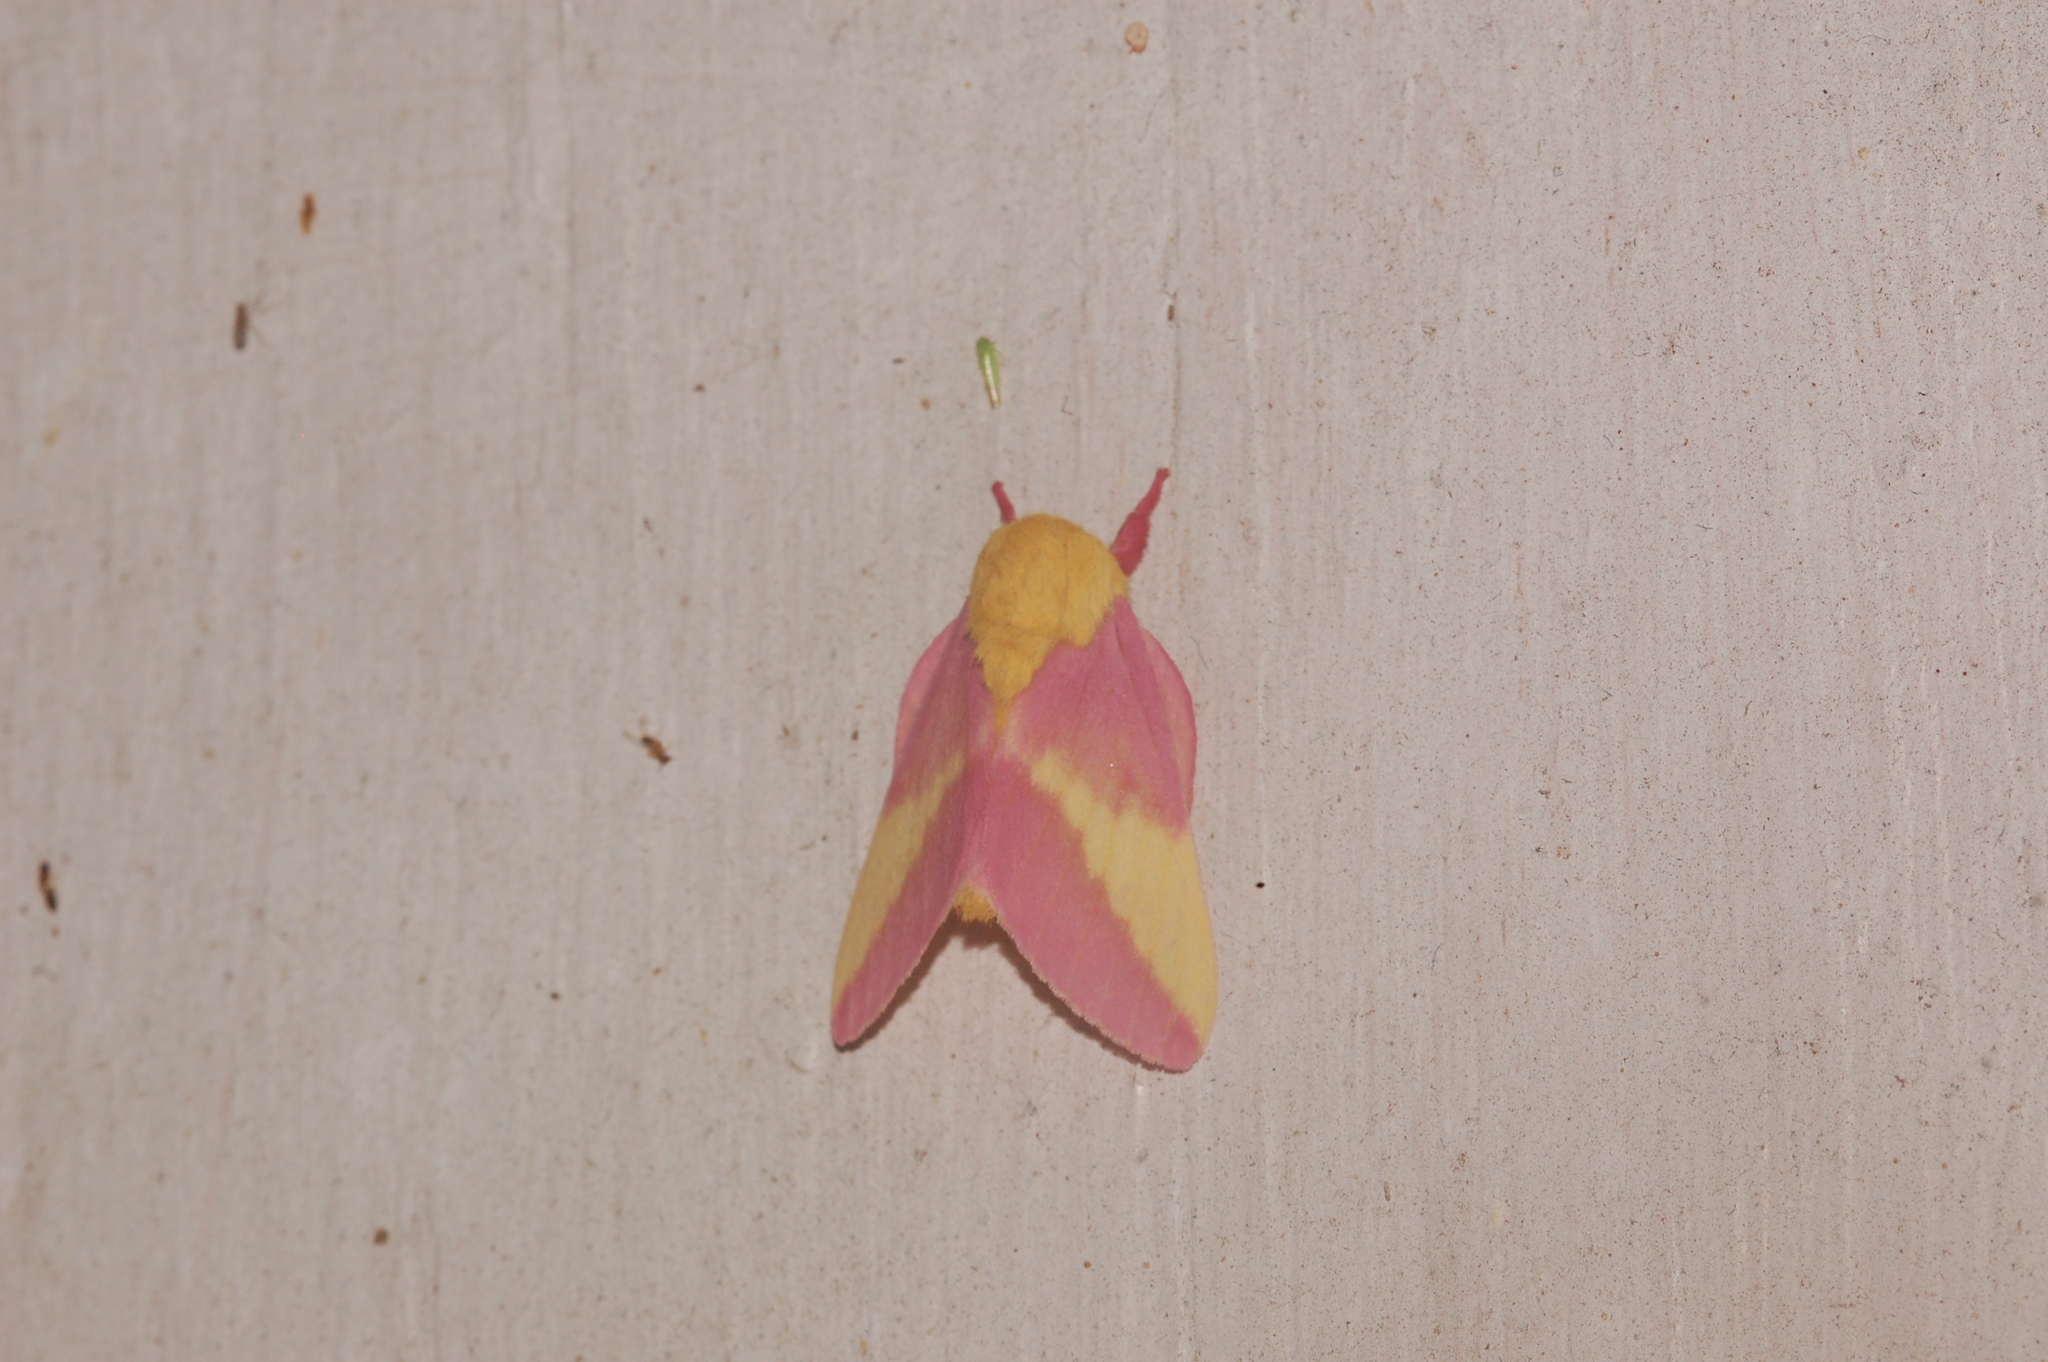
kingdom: Animalia
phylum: Arthropoda
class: Insecta
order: Lepidoptera
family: Saturniidae
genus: Dryocampa
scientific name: Dryocampa rubicunda
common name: Rosy maple moth
